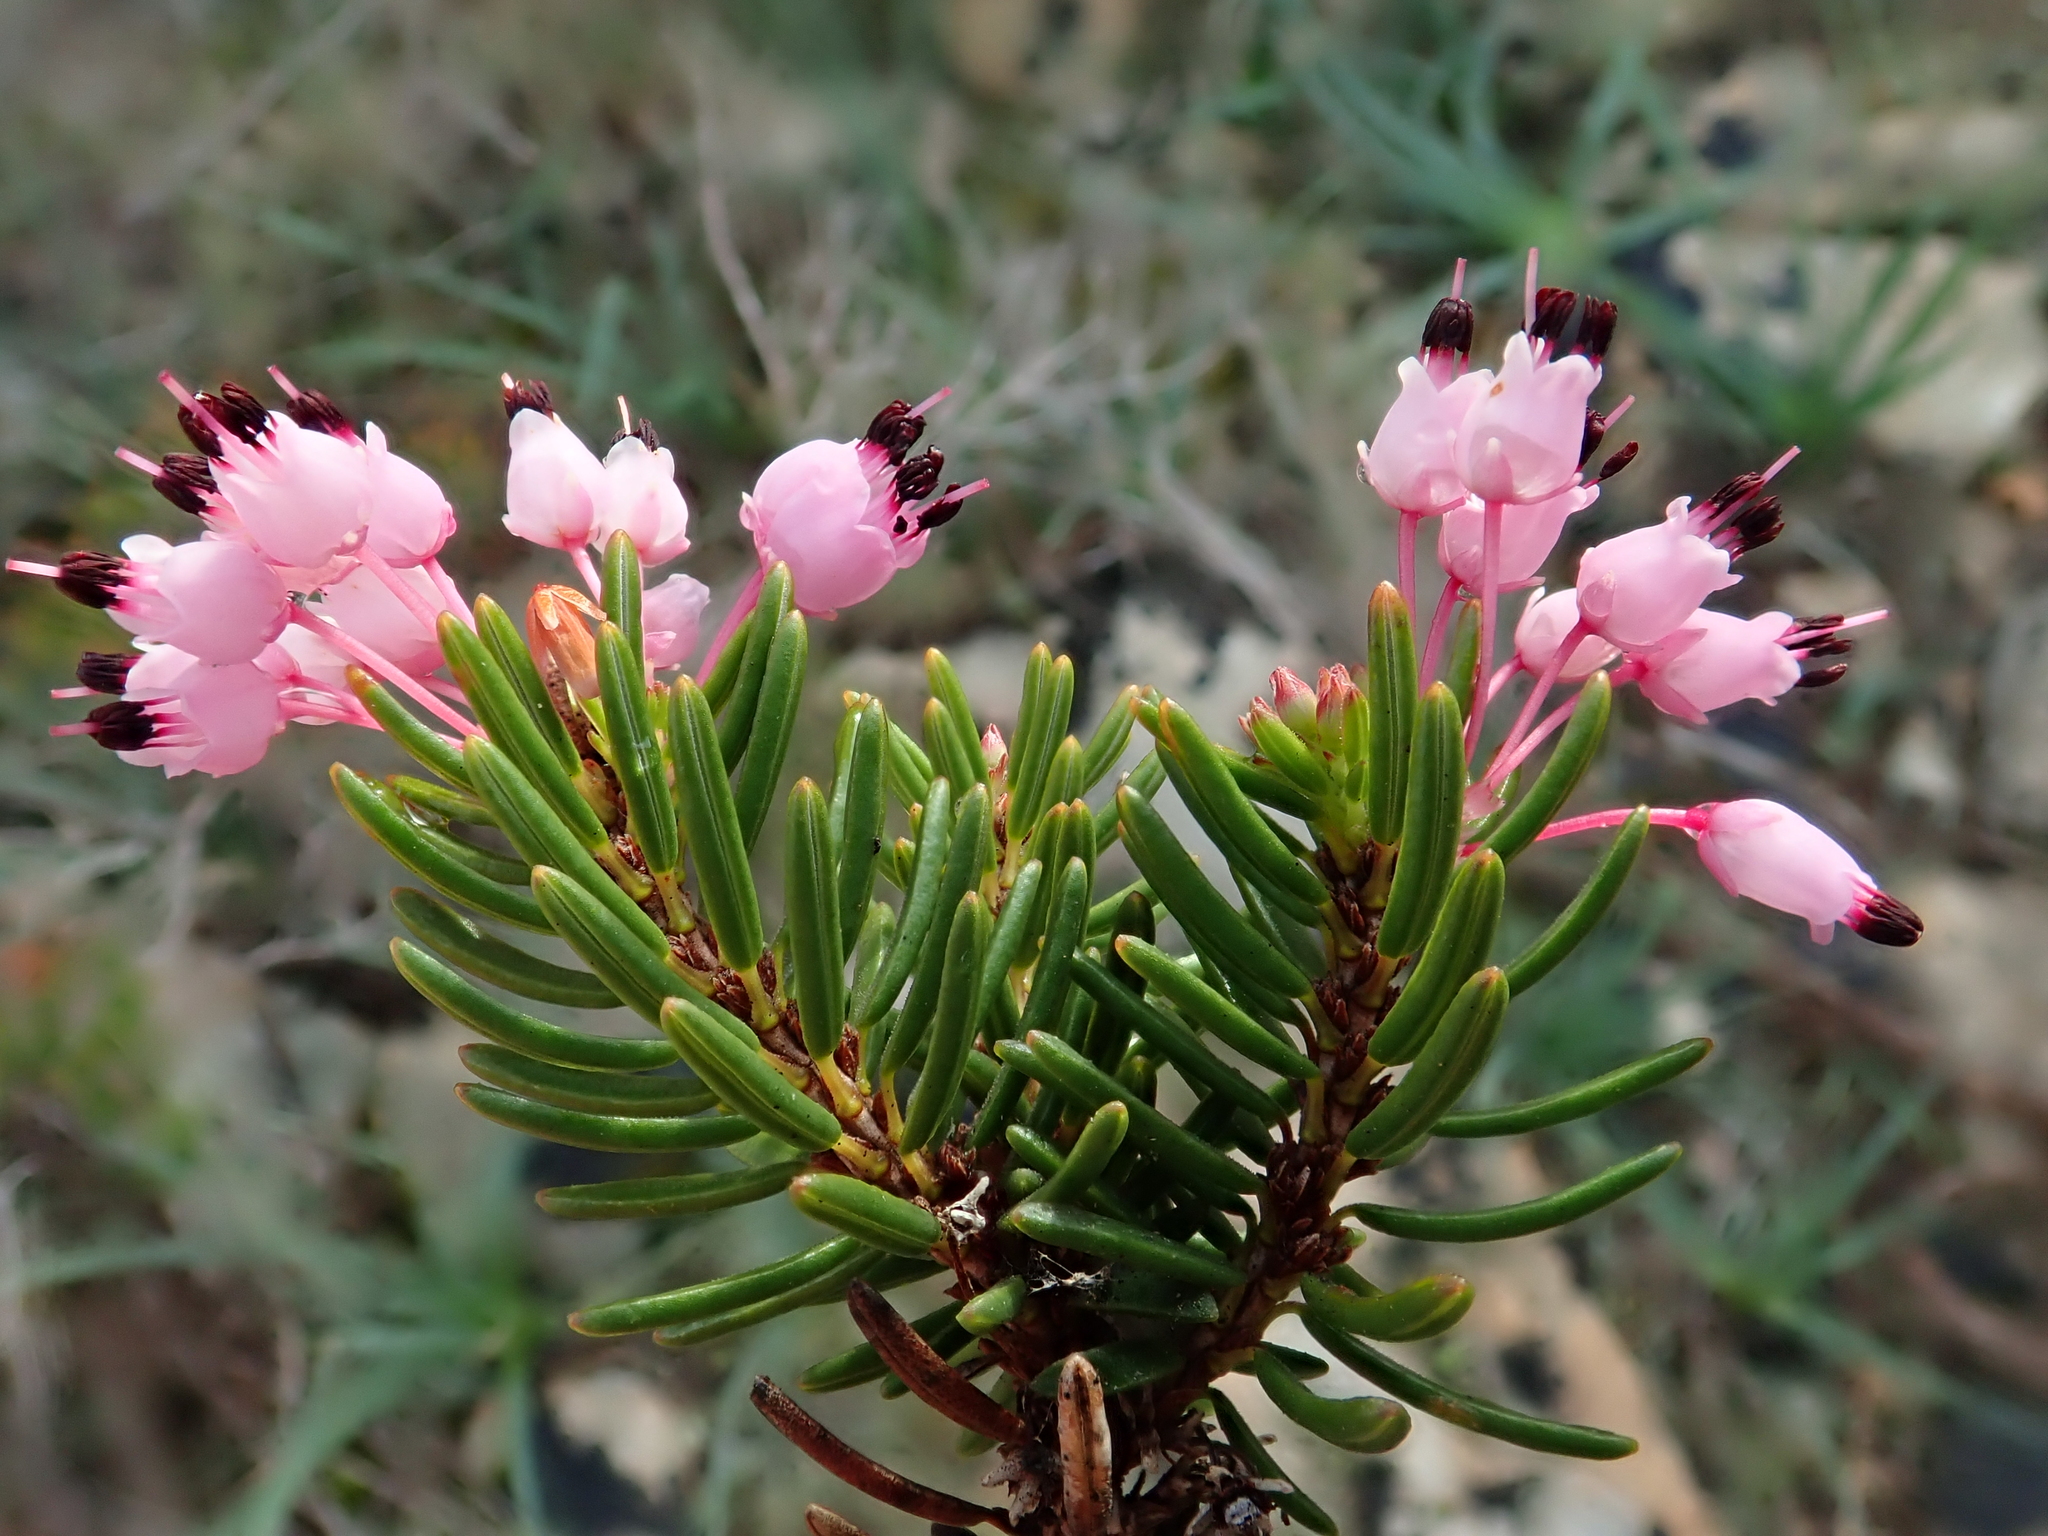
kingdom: Plantae
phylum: Tracheophyta
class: Magnoliopsida
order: Ericales
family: Ericaceae
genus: Erica
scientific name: Erica multiflora
